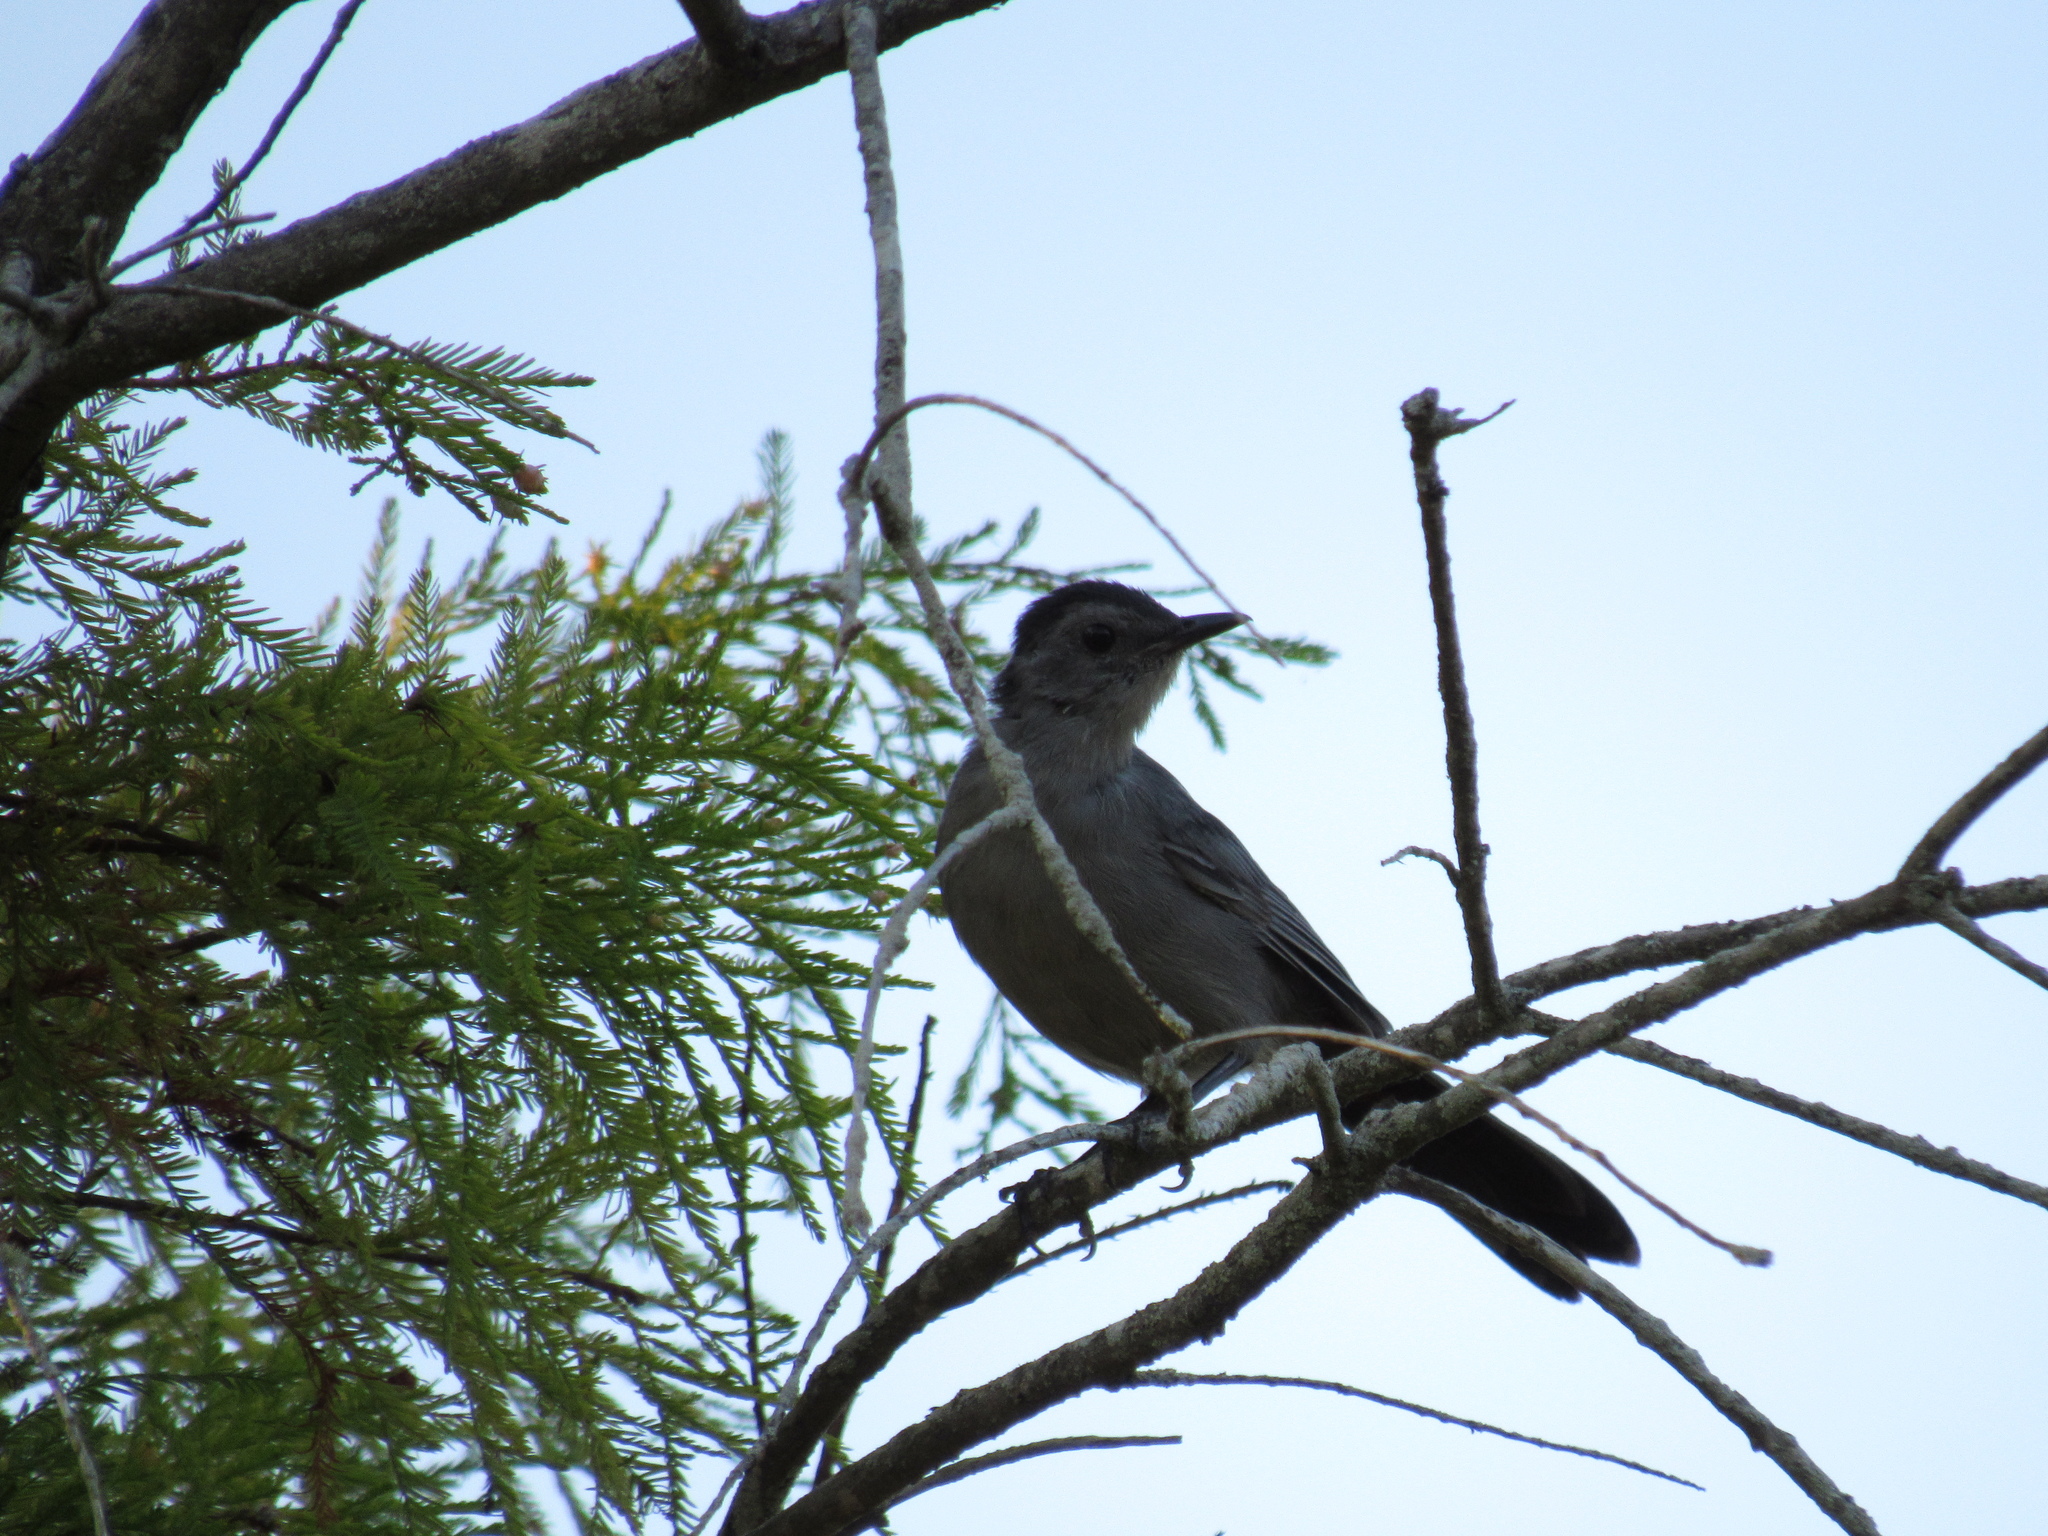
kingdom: Animalia
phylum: Chordata
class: Aves
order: Passeriformes
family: Mimidae
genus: Dumetella
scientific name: Dumetella carolinensis
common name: Gray catbird
